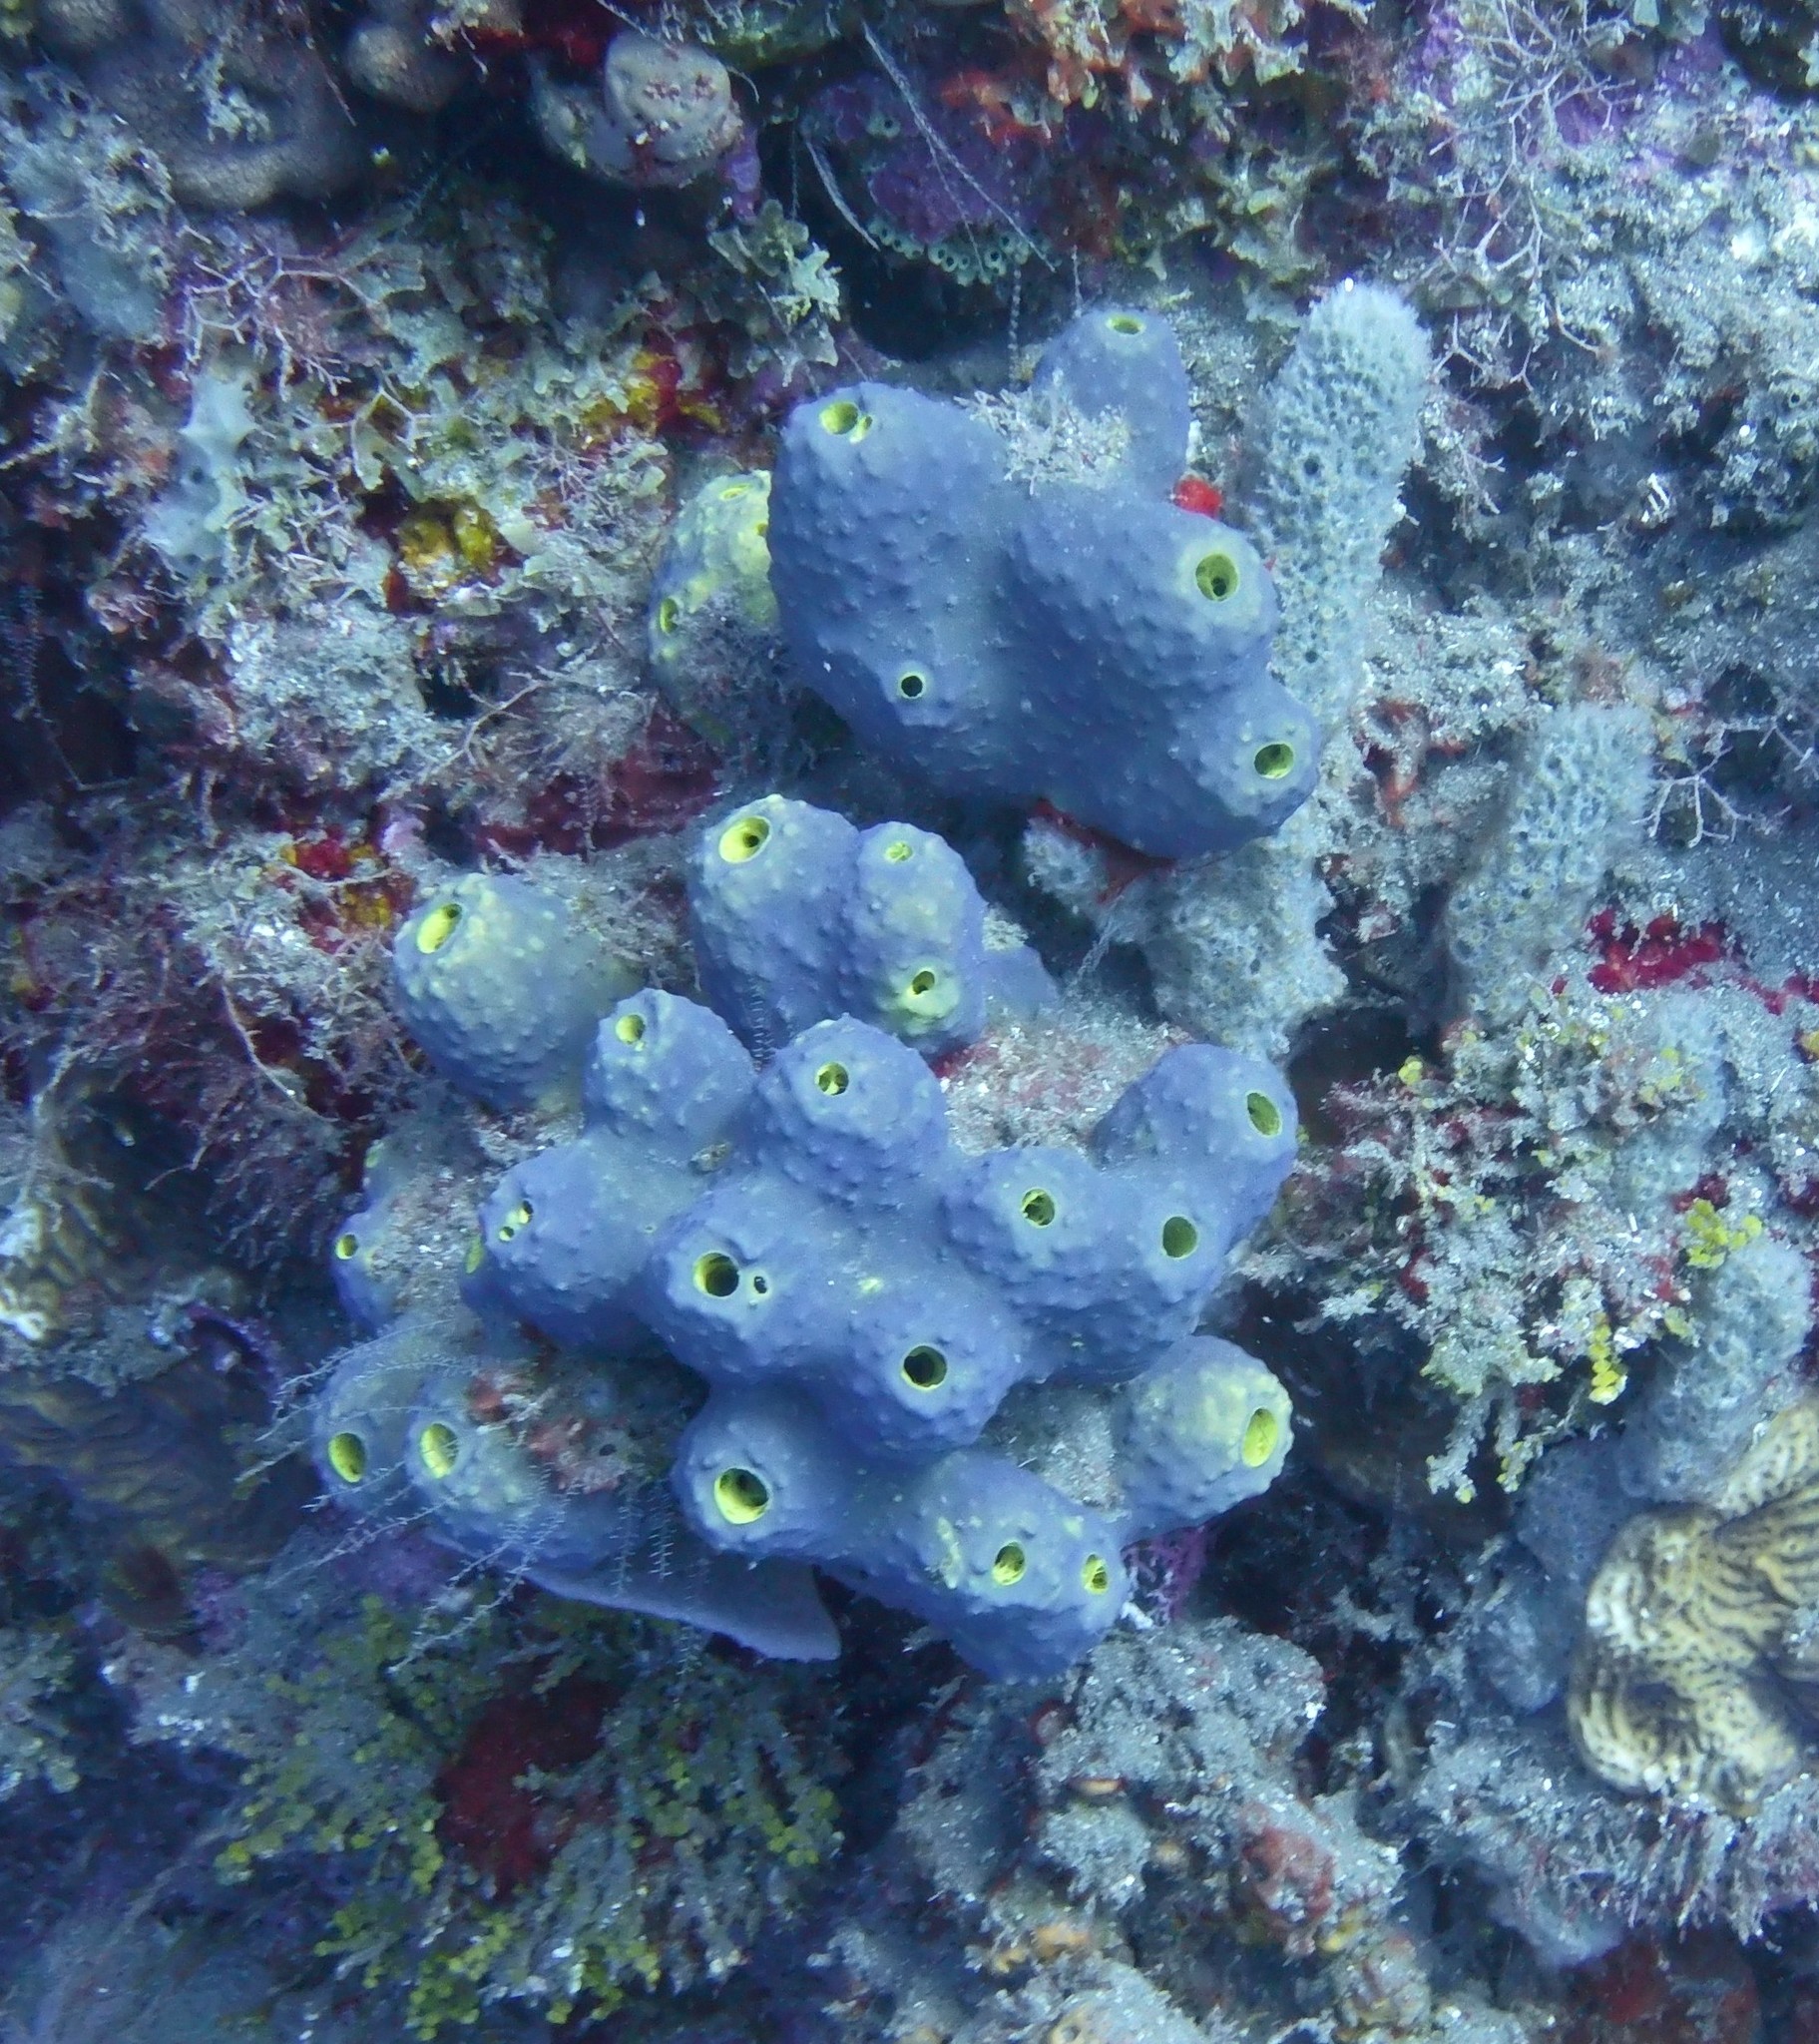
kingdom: Animalia
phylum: Porifera
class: Demospongiae
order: Verongiida
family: Aplysinidae
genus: Aiolochroia
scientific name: Aiolochroia crassa
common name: Branching tube sponge
